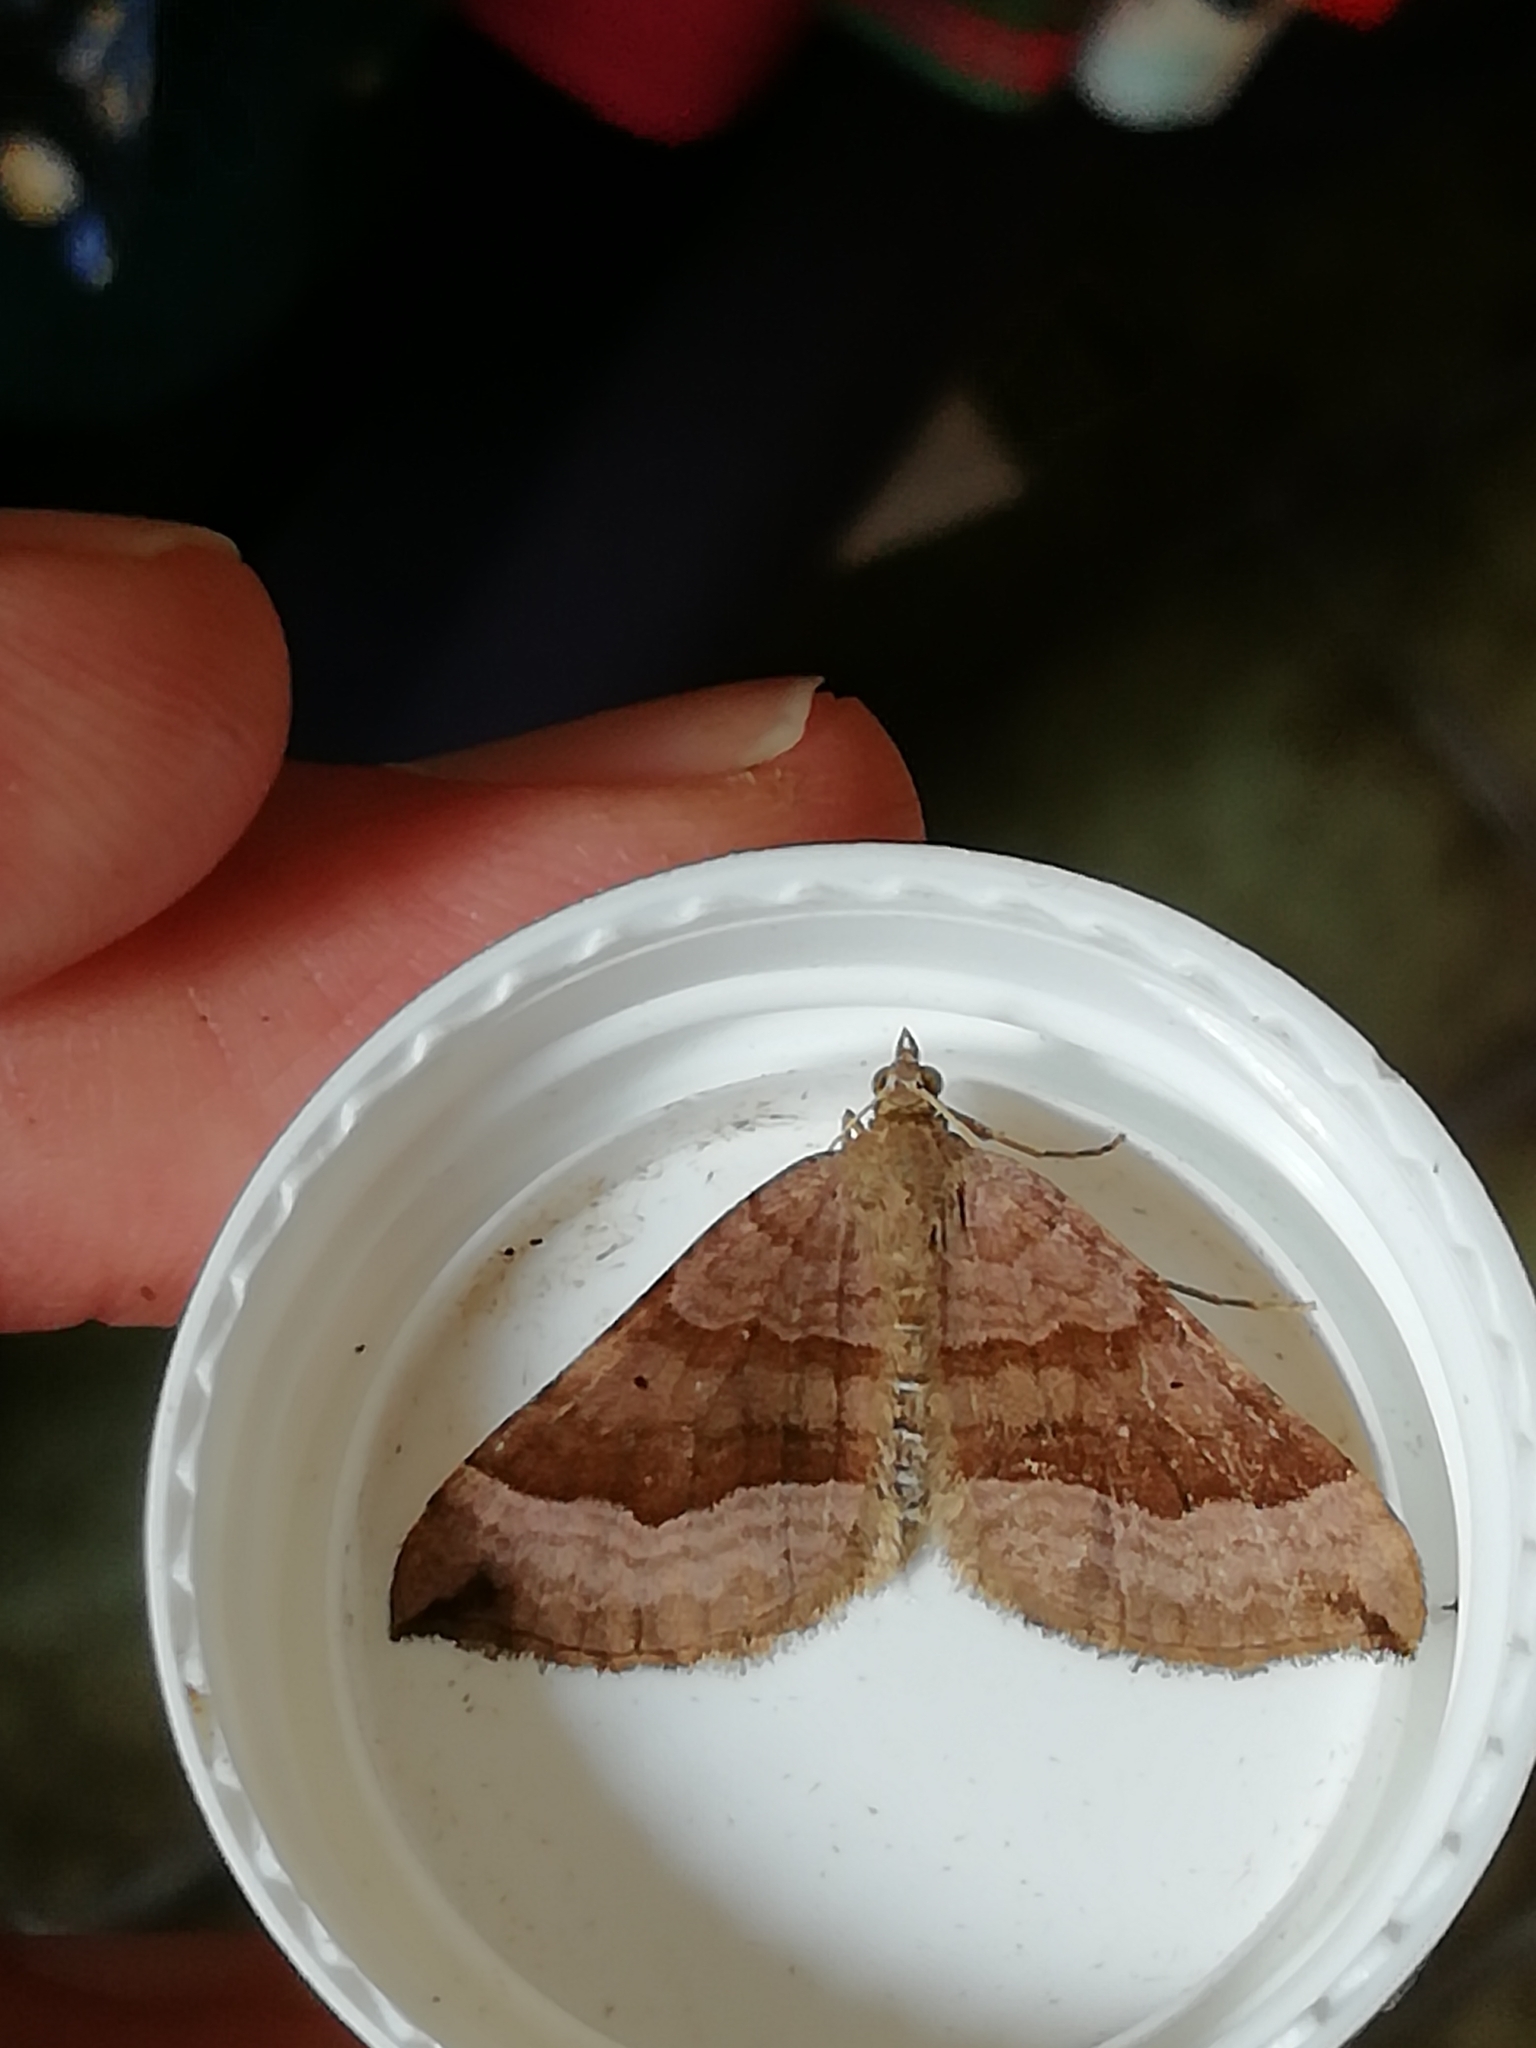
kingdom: Animalia
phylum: Arthropoda
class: Insecta
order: Lepidoptera
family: Geometridae
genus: Scotopteryx
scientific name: Scotopteryx chenopodiata
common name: Shaded broad-bar
